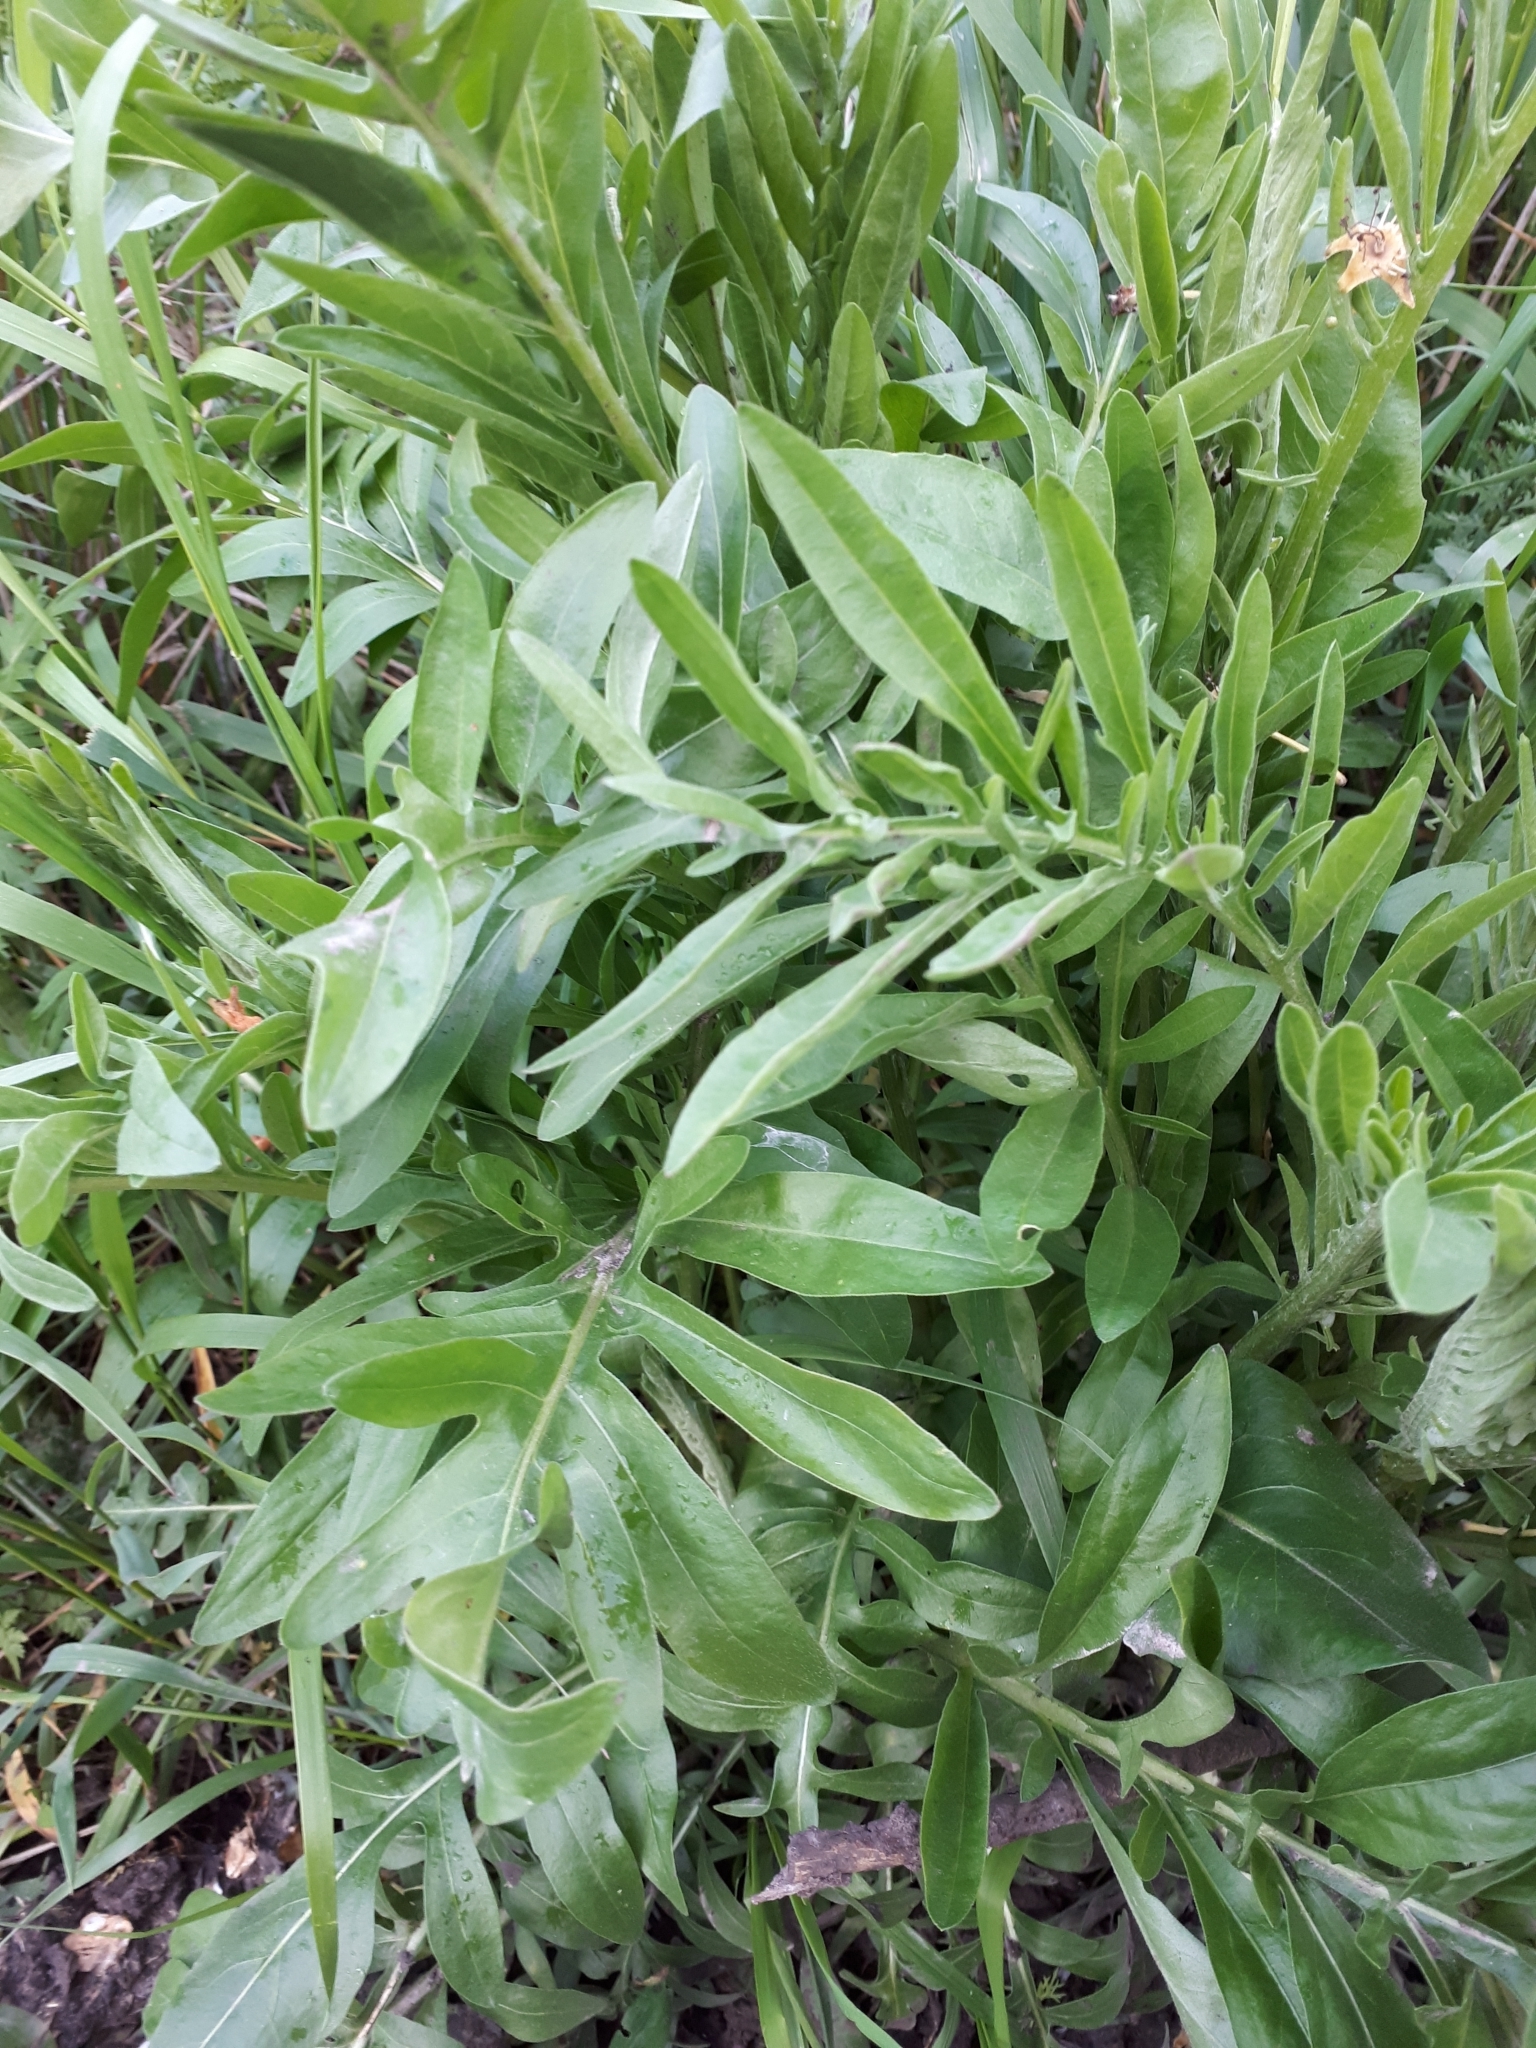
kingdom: Plantae
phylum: Tracheophyta
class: Magnoliopsida
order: Asterales
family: Asteraceae
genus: Centaurea
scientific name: Centaurea scabiosa
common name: Greater knapweed
